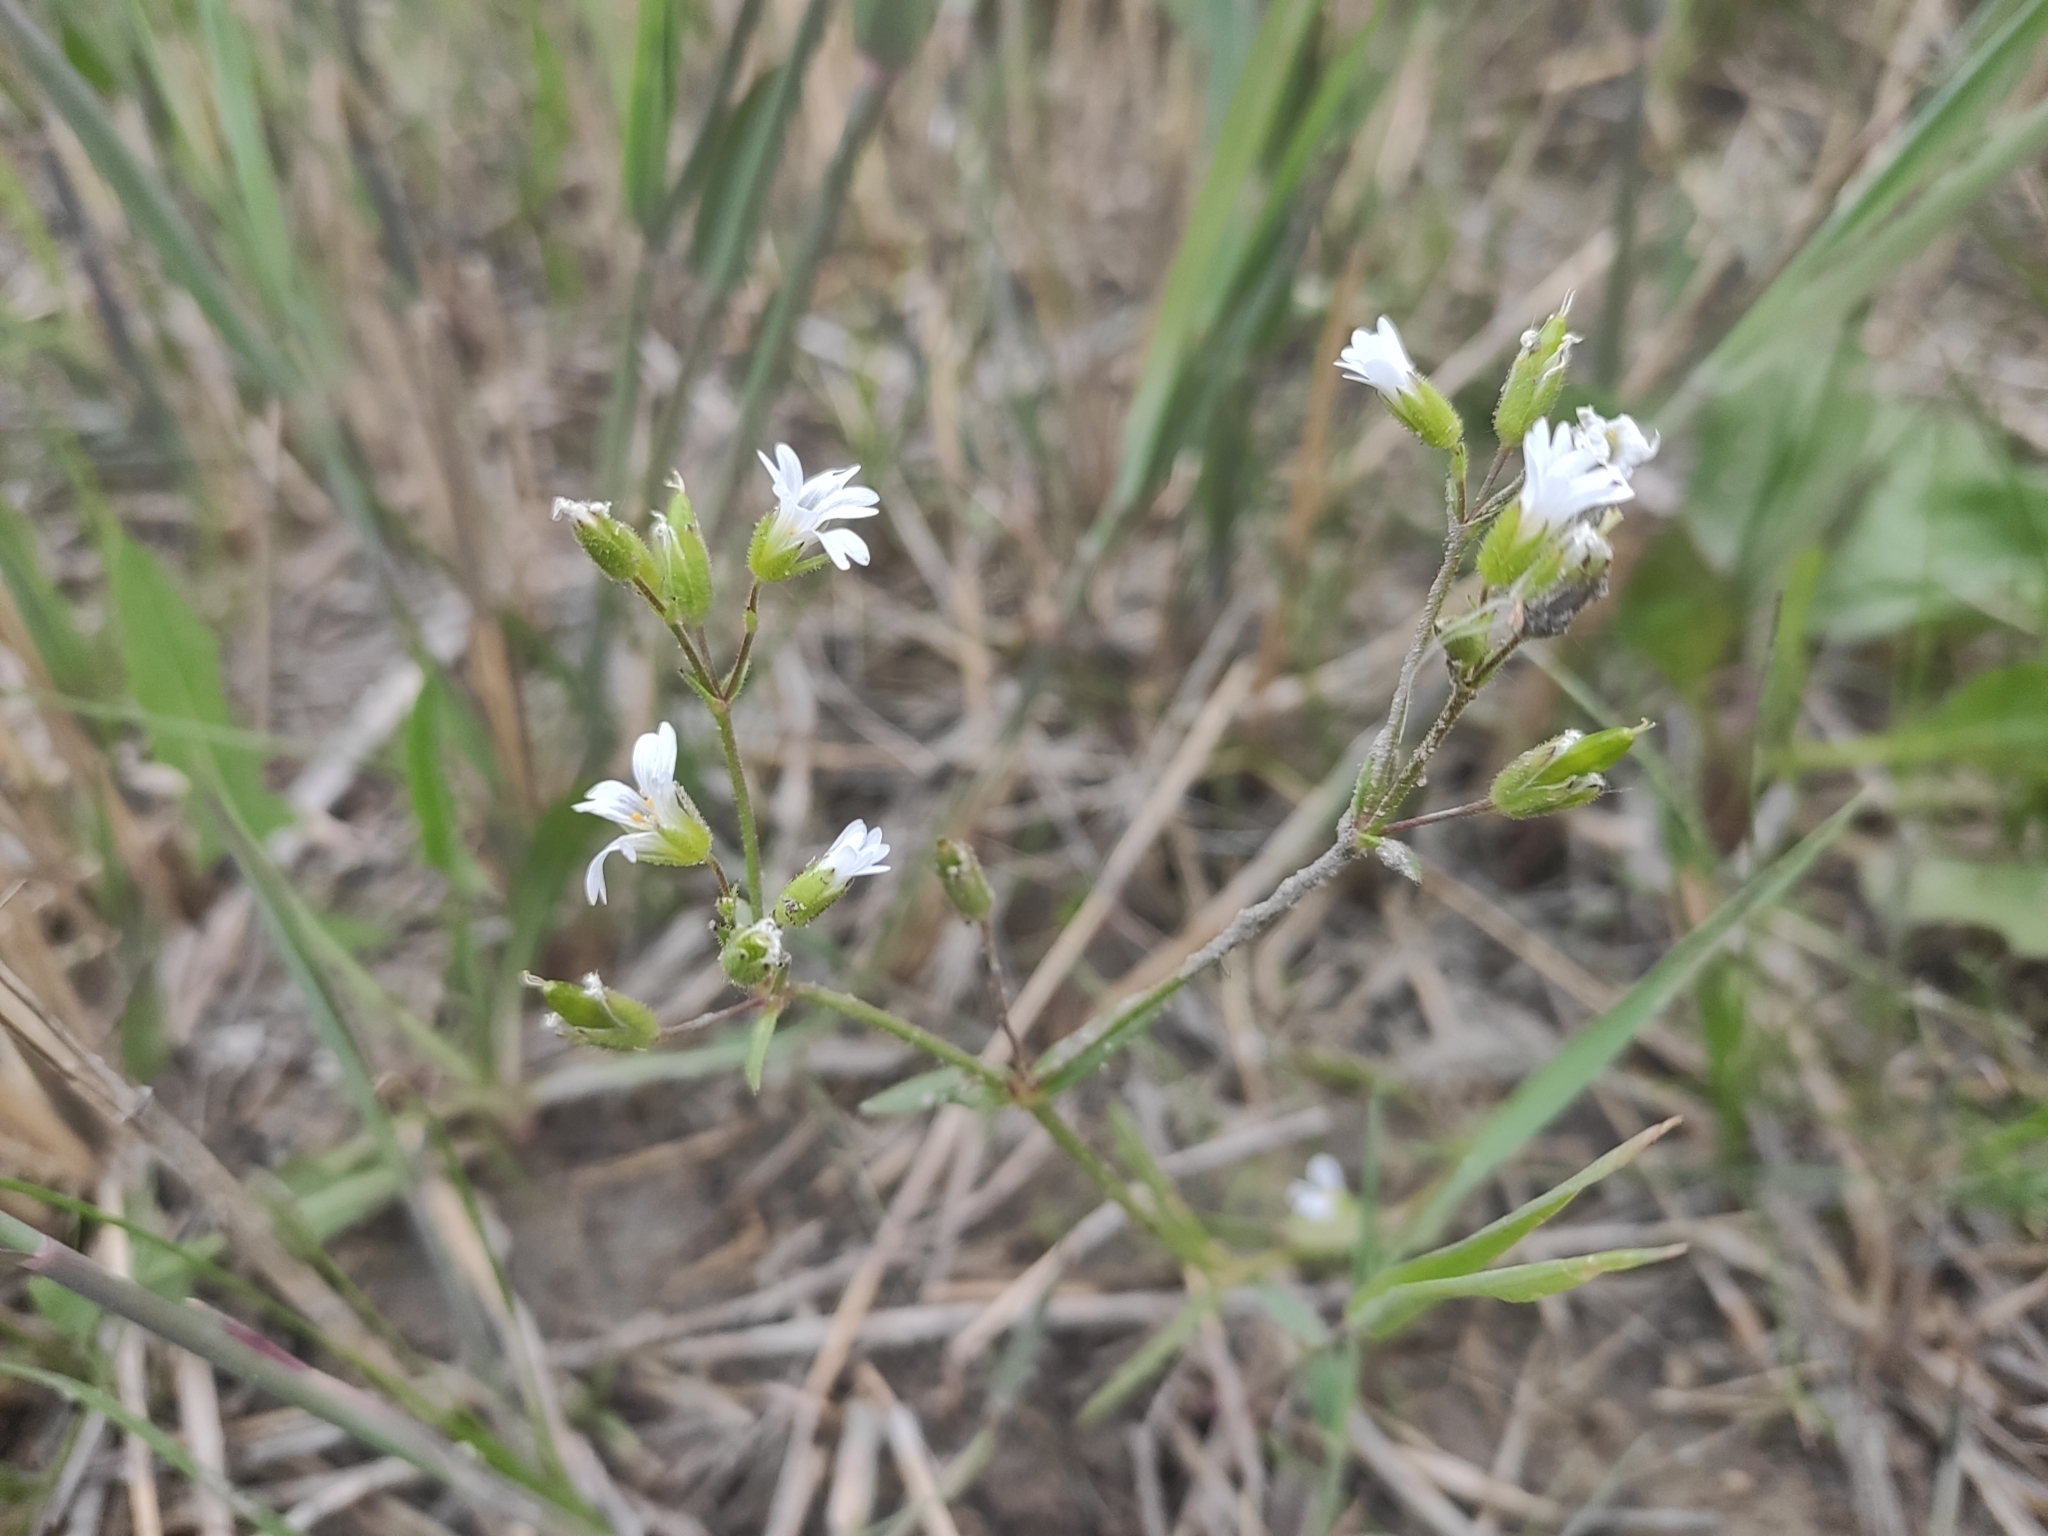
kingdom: Plantae
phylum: Tracheophyta
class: Magnoliopsida
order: Caryophyllales
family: Caryophyllaceae
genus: Dichodon
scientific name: Dichodon viscidum
